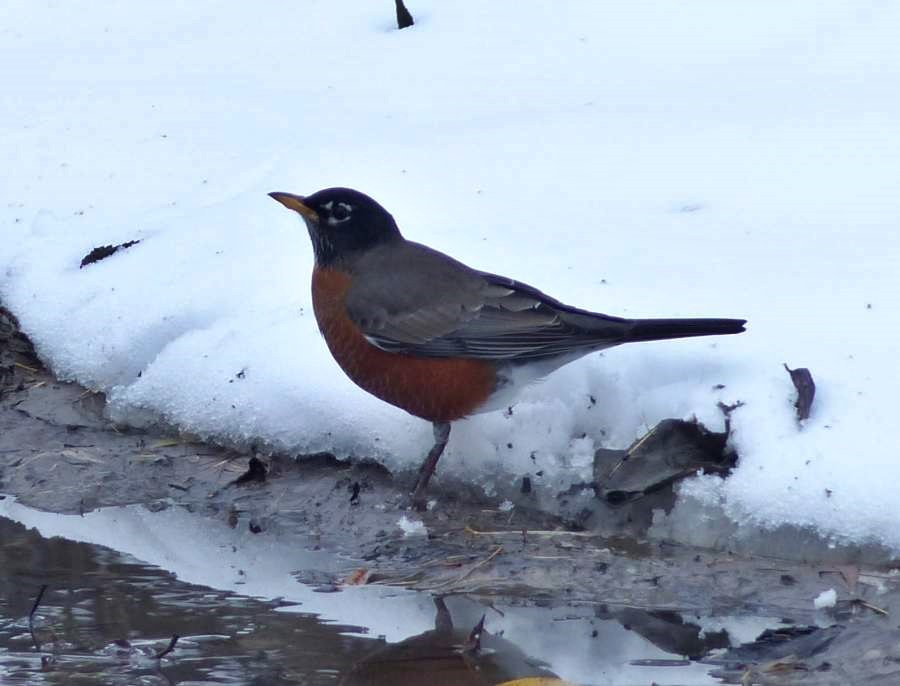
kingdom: Animalia
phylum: Chordata
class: Aves
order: Passeriformes
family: Turdidae
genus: Turdus
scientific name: Turdus migratorius
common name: American robin
